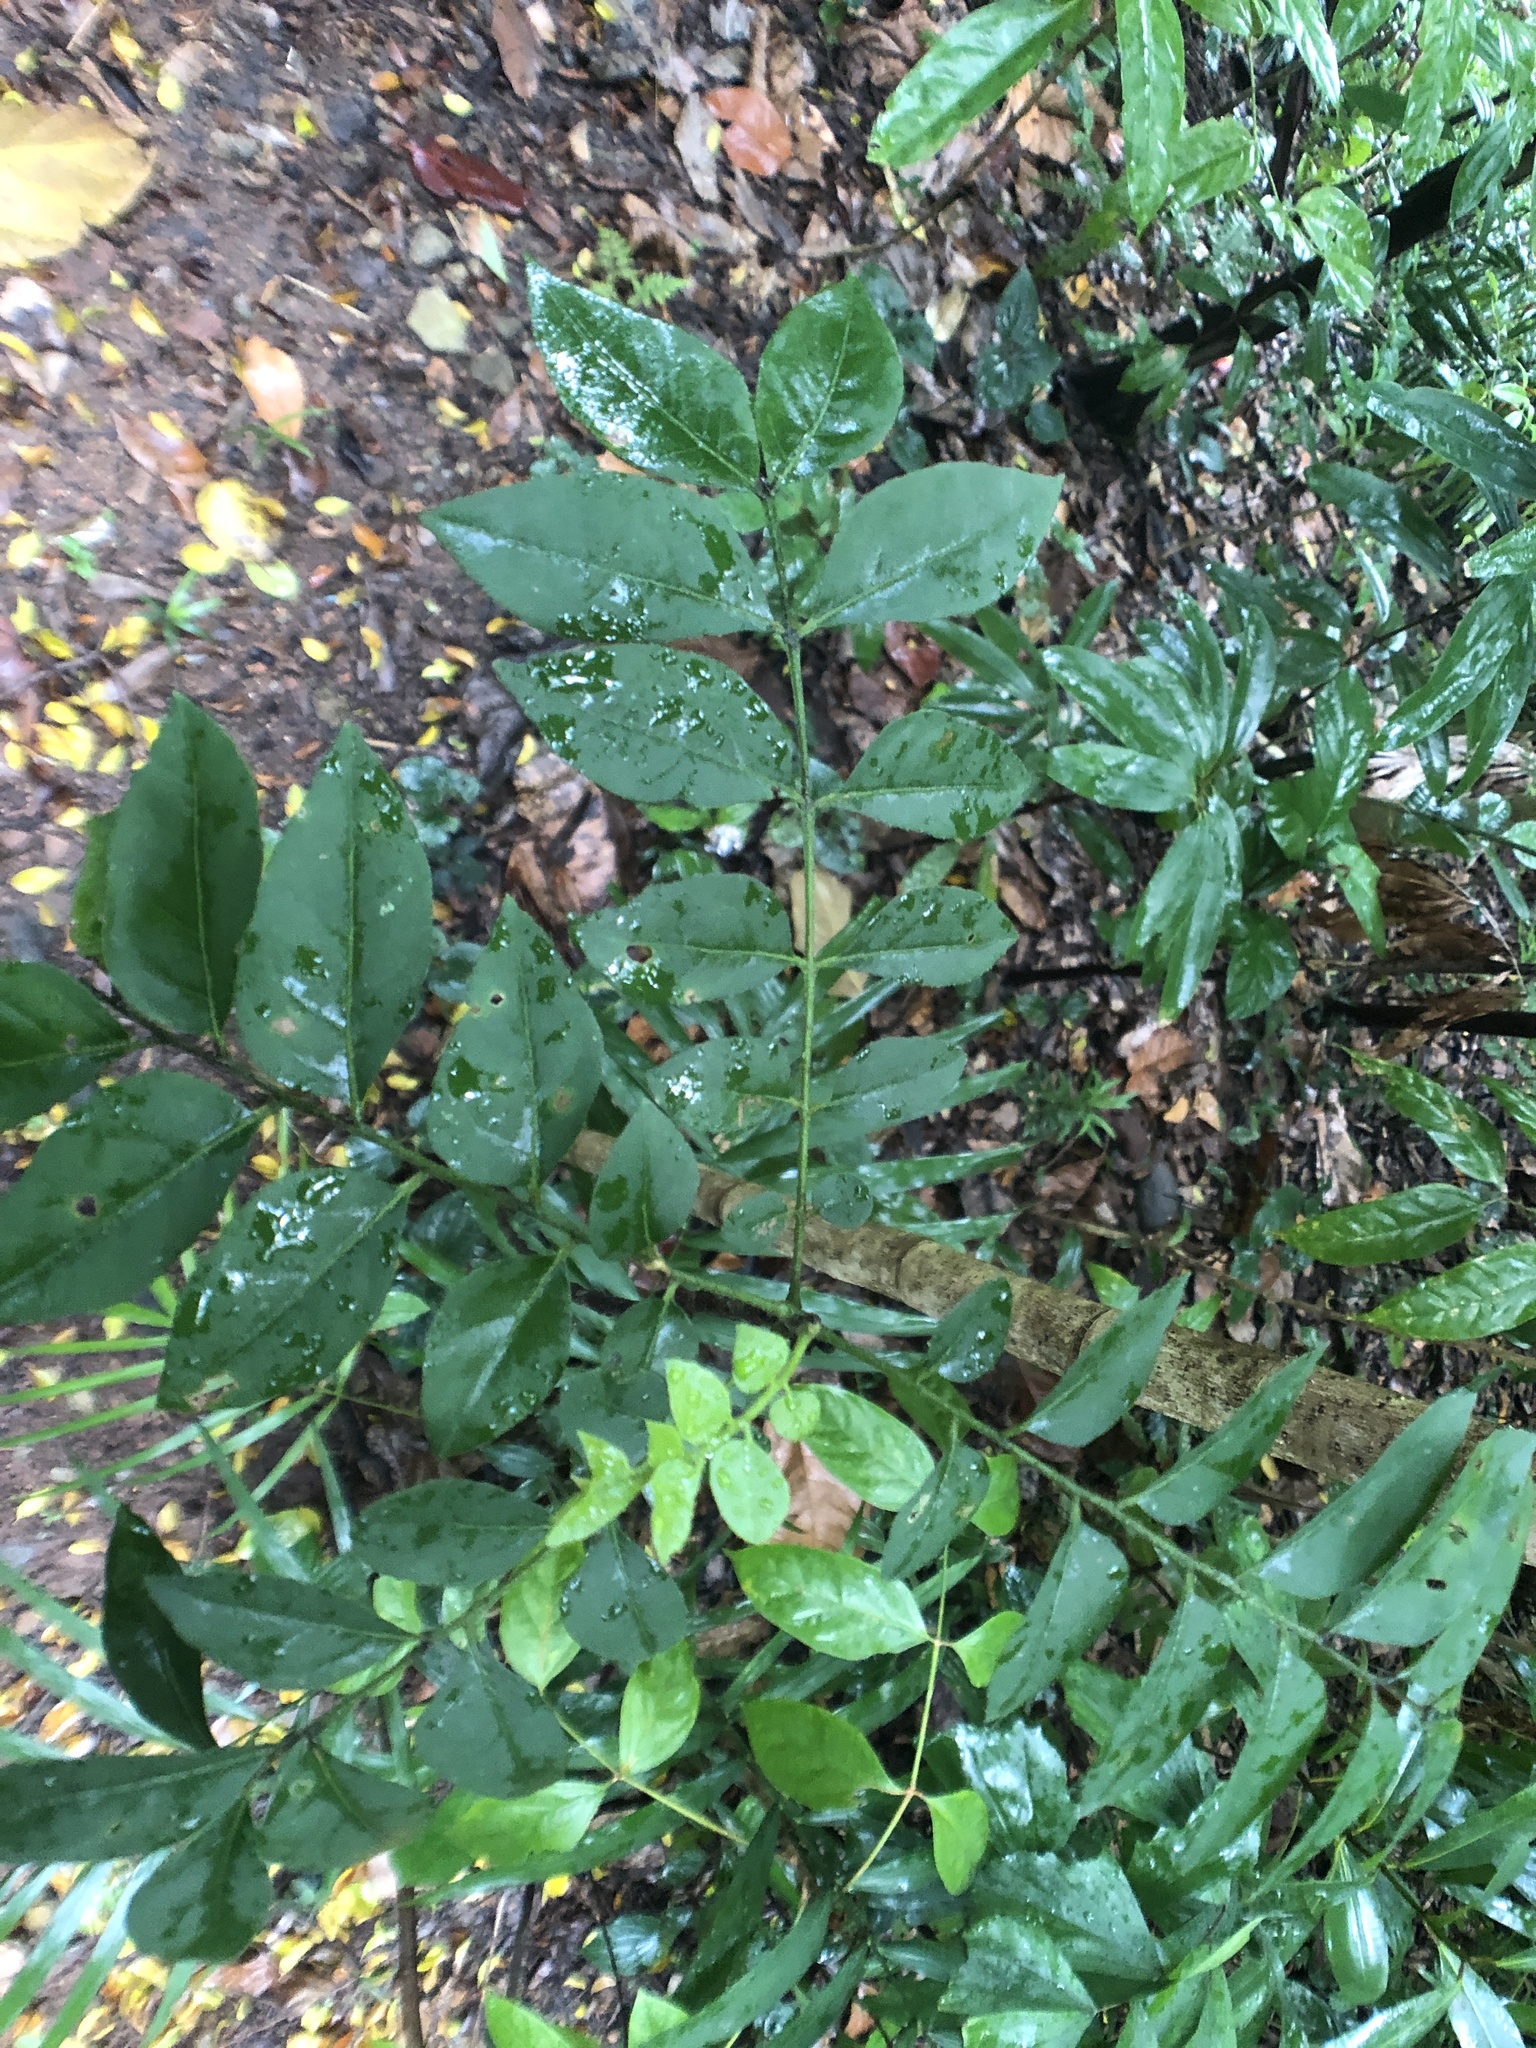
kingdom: Plantae
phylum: Tracheophyta
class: Magnoliopsida
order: Sapindales
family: Rutaceae
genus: Clausena
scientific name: Clausena excavata
